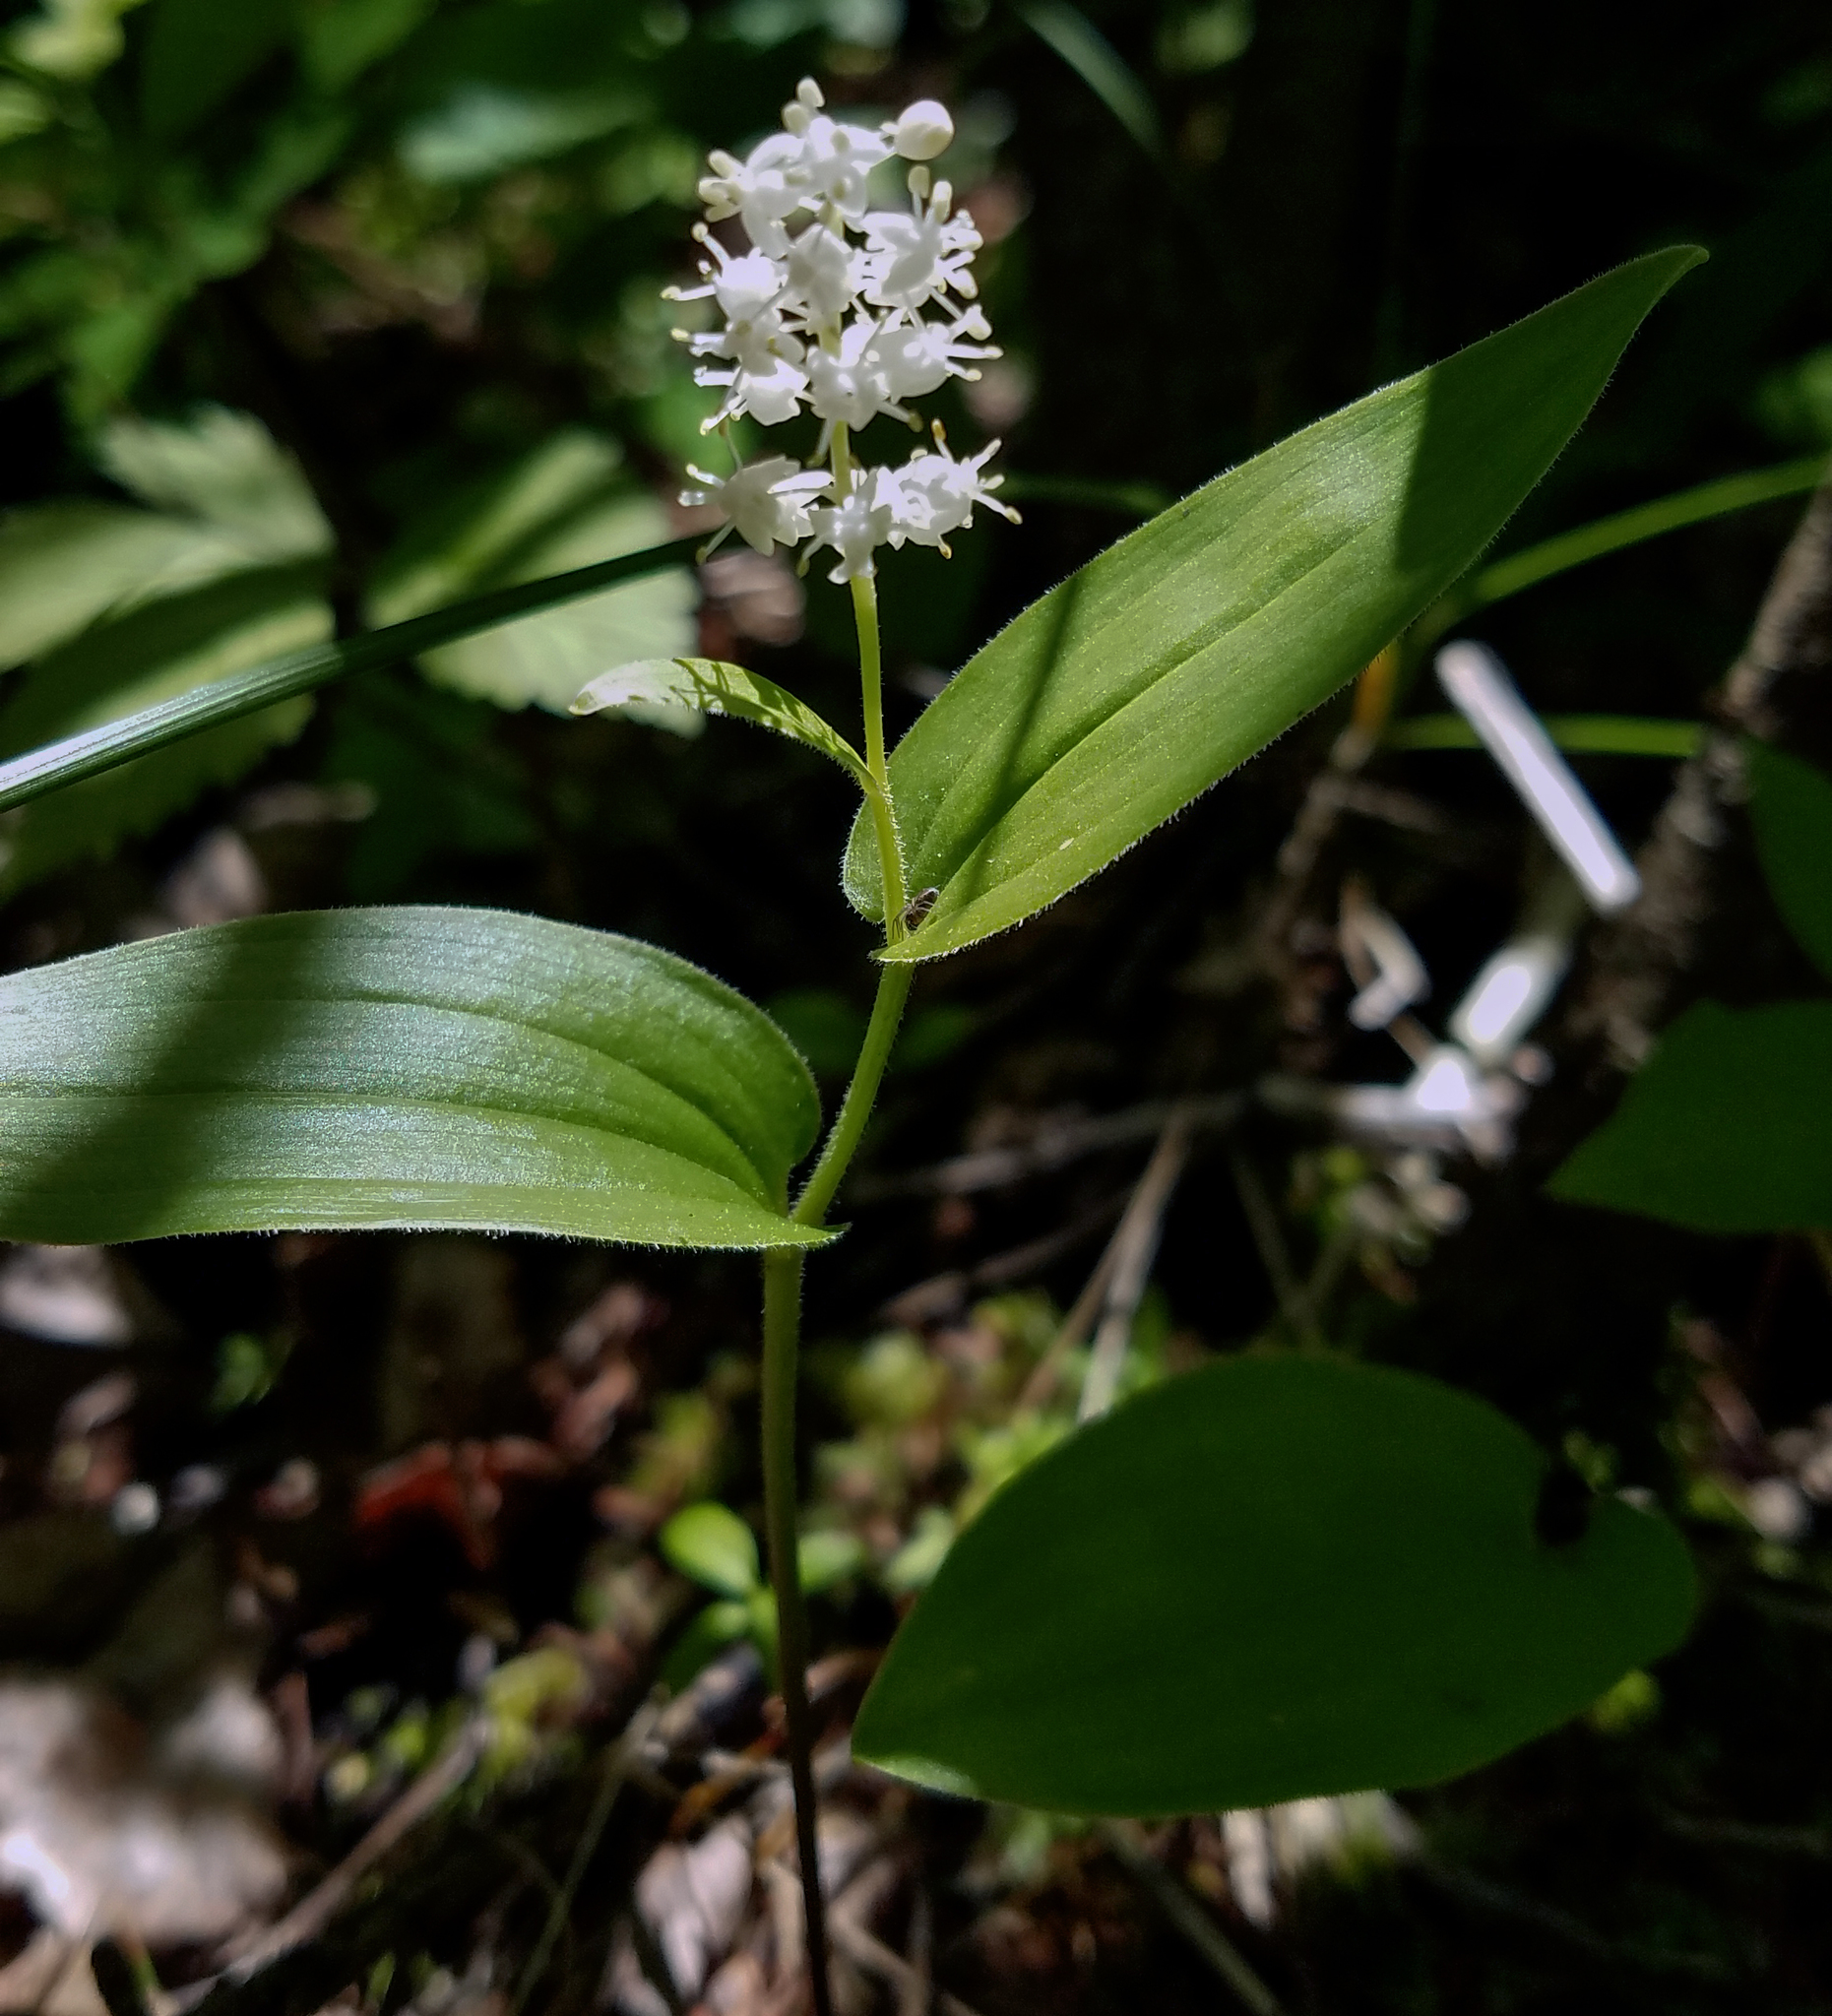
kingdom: Plantae
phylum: Tracheophyta
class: Liliopsida
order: Asparagales
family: Asparagaceae
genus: Maianthemum
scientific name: Maianthemum canadense
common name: False lily-of-the-valley
